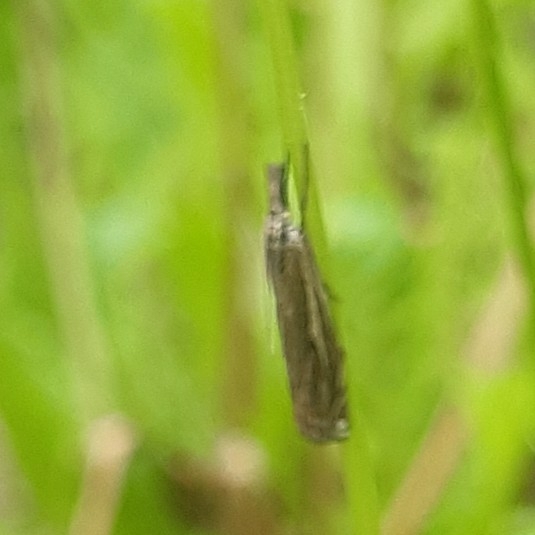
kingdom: Animalia
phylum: Arthropoda
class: Insecta
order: Lepidoptera
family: Crambidae
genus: Crambus
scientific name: Crambus nemorella
